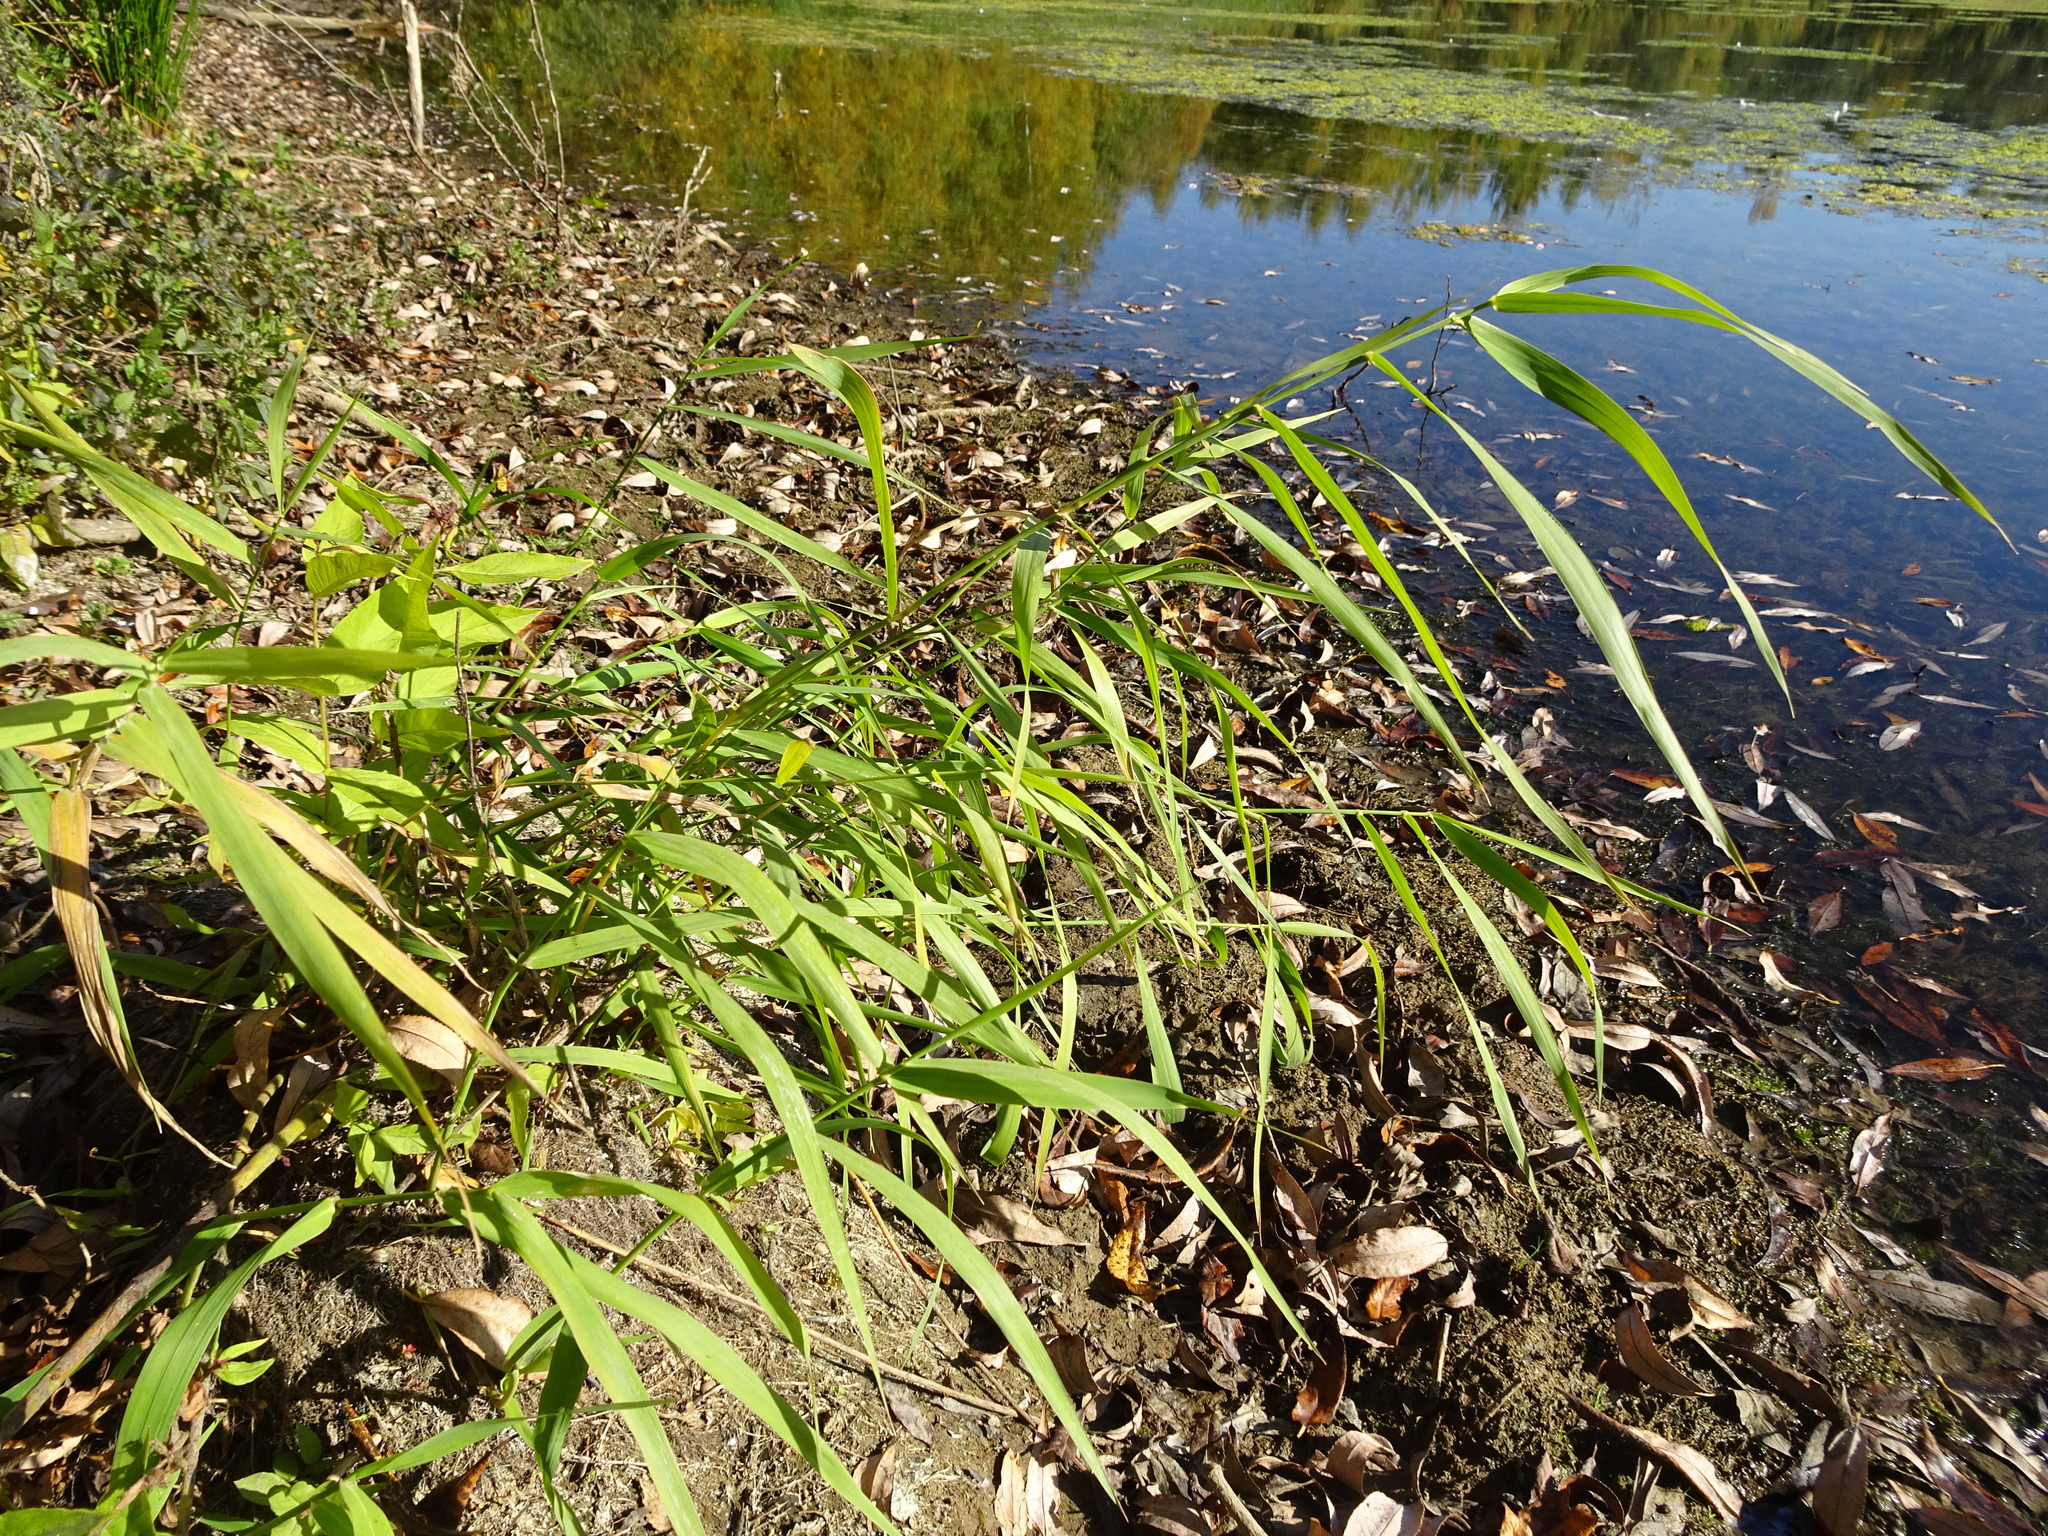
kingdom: Plantae
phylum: Tracheophyta
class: Liliopsida
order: Poales
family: Poaceae
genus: Phragmites
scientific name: Phragmites australis
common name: Common reed
